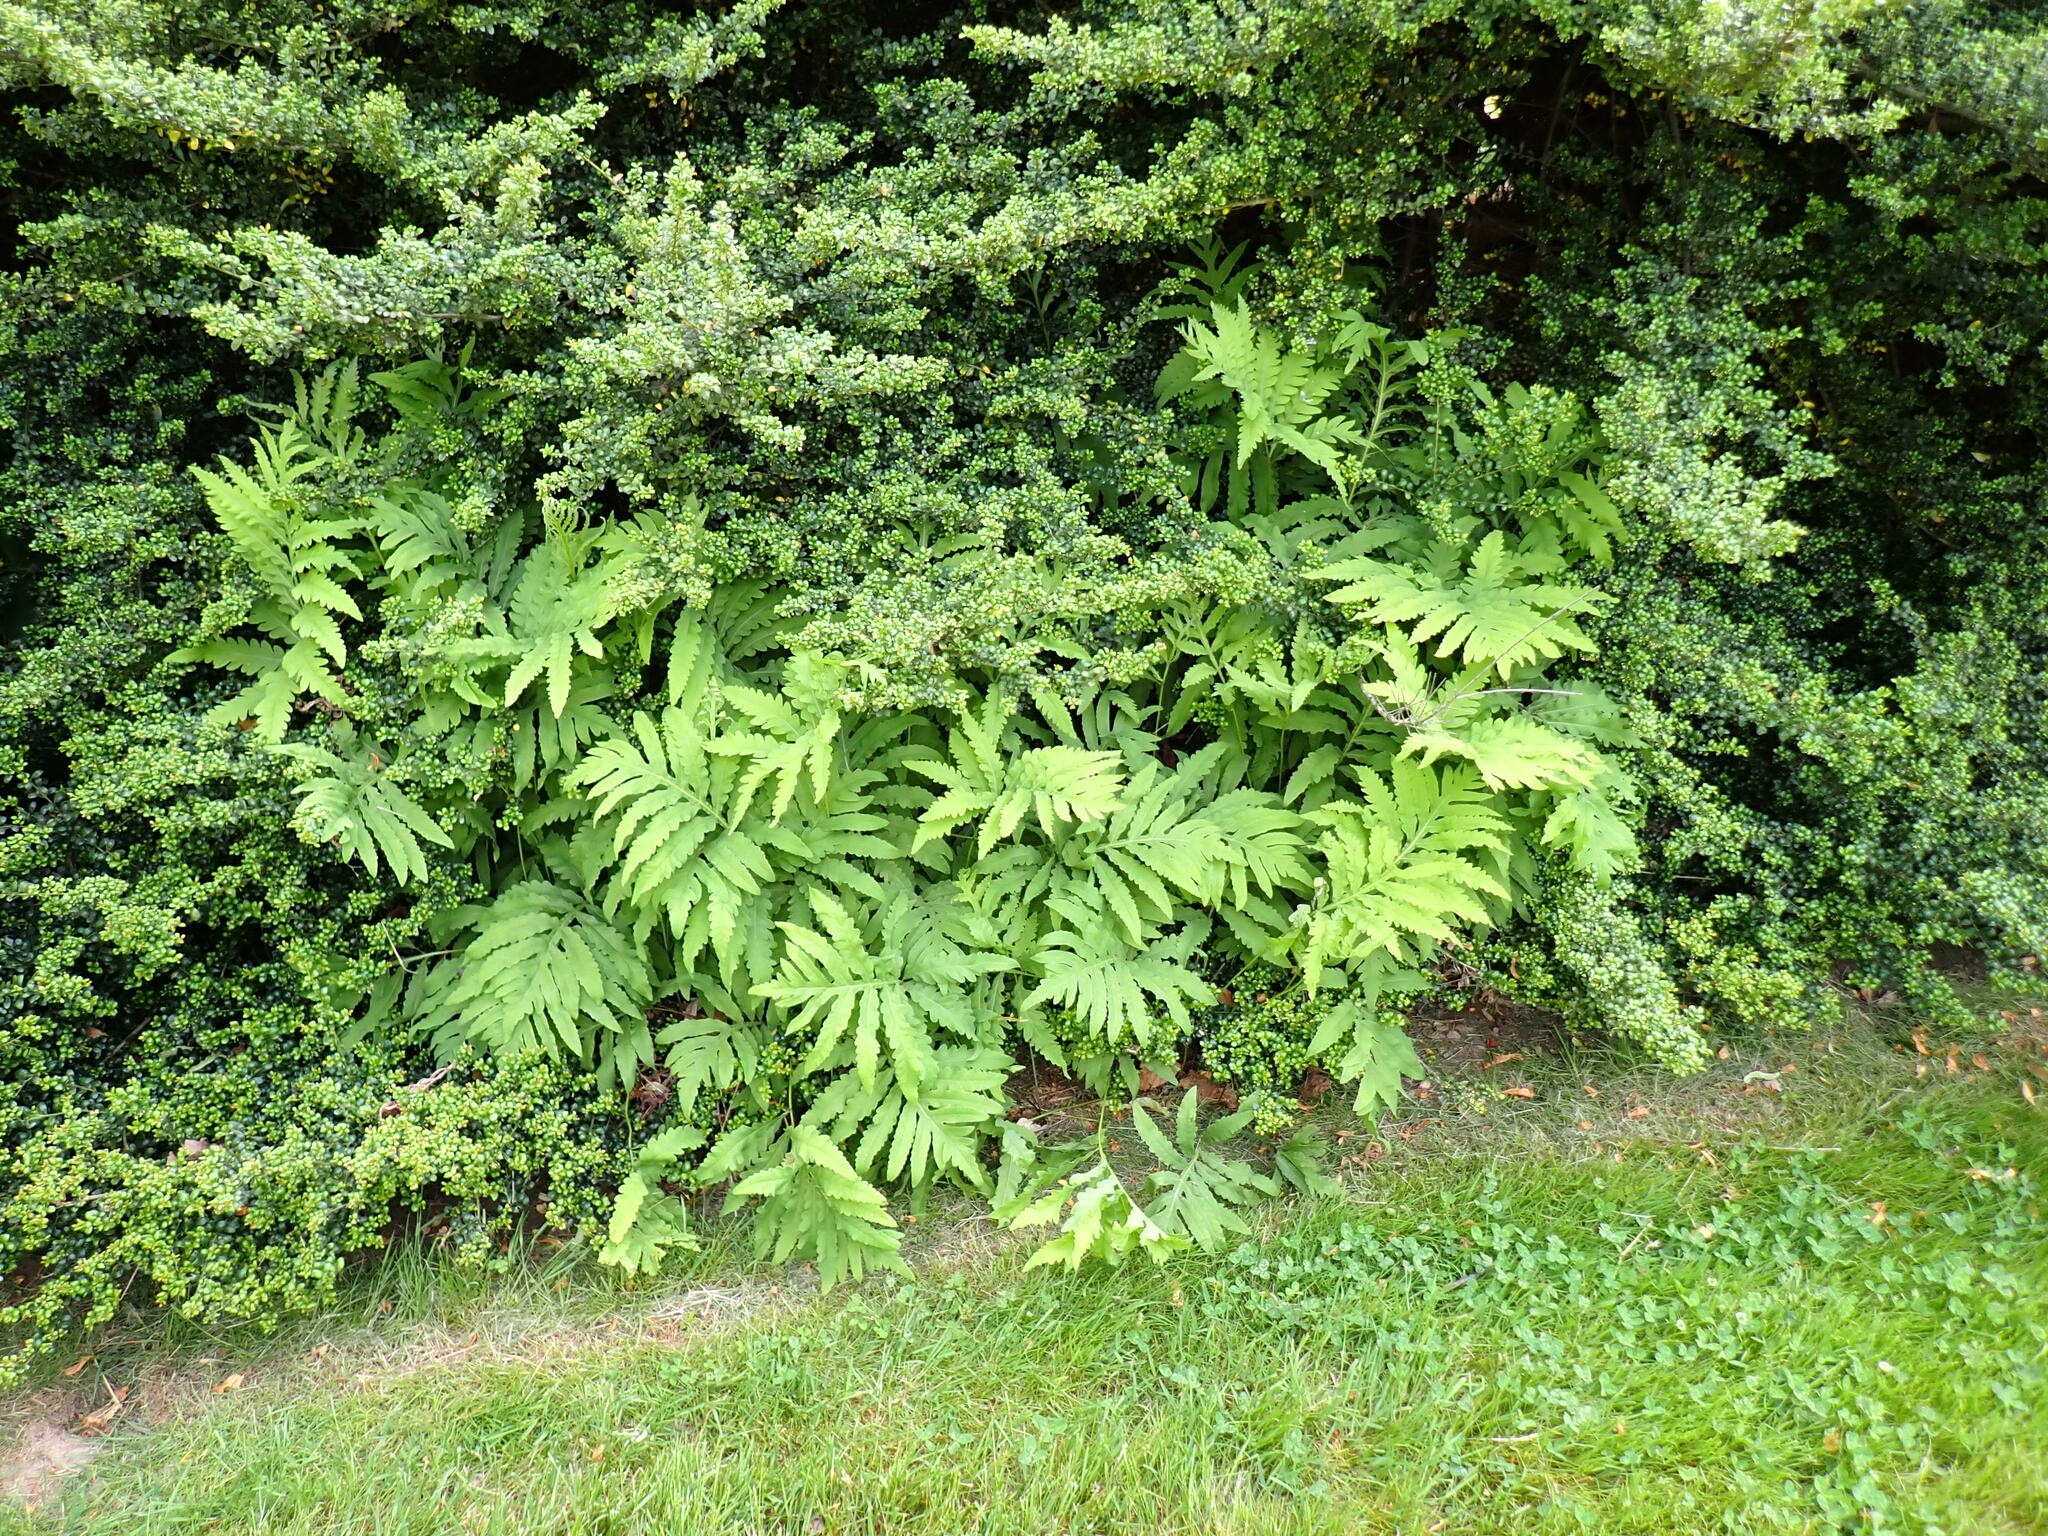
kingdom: Plantae
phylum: Tracheophyta
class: Polypodiopsida
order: Polypodiales
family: Onocleaceae
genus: Onoclea
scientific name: Onoclea sensibilis
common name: Sensitive fern
